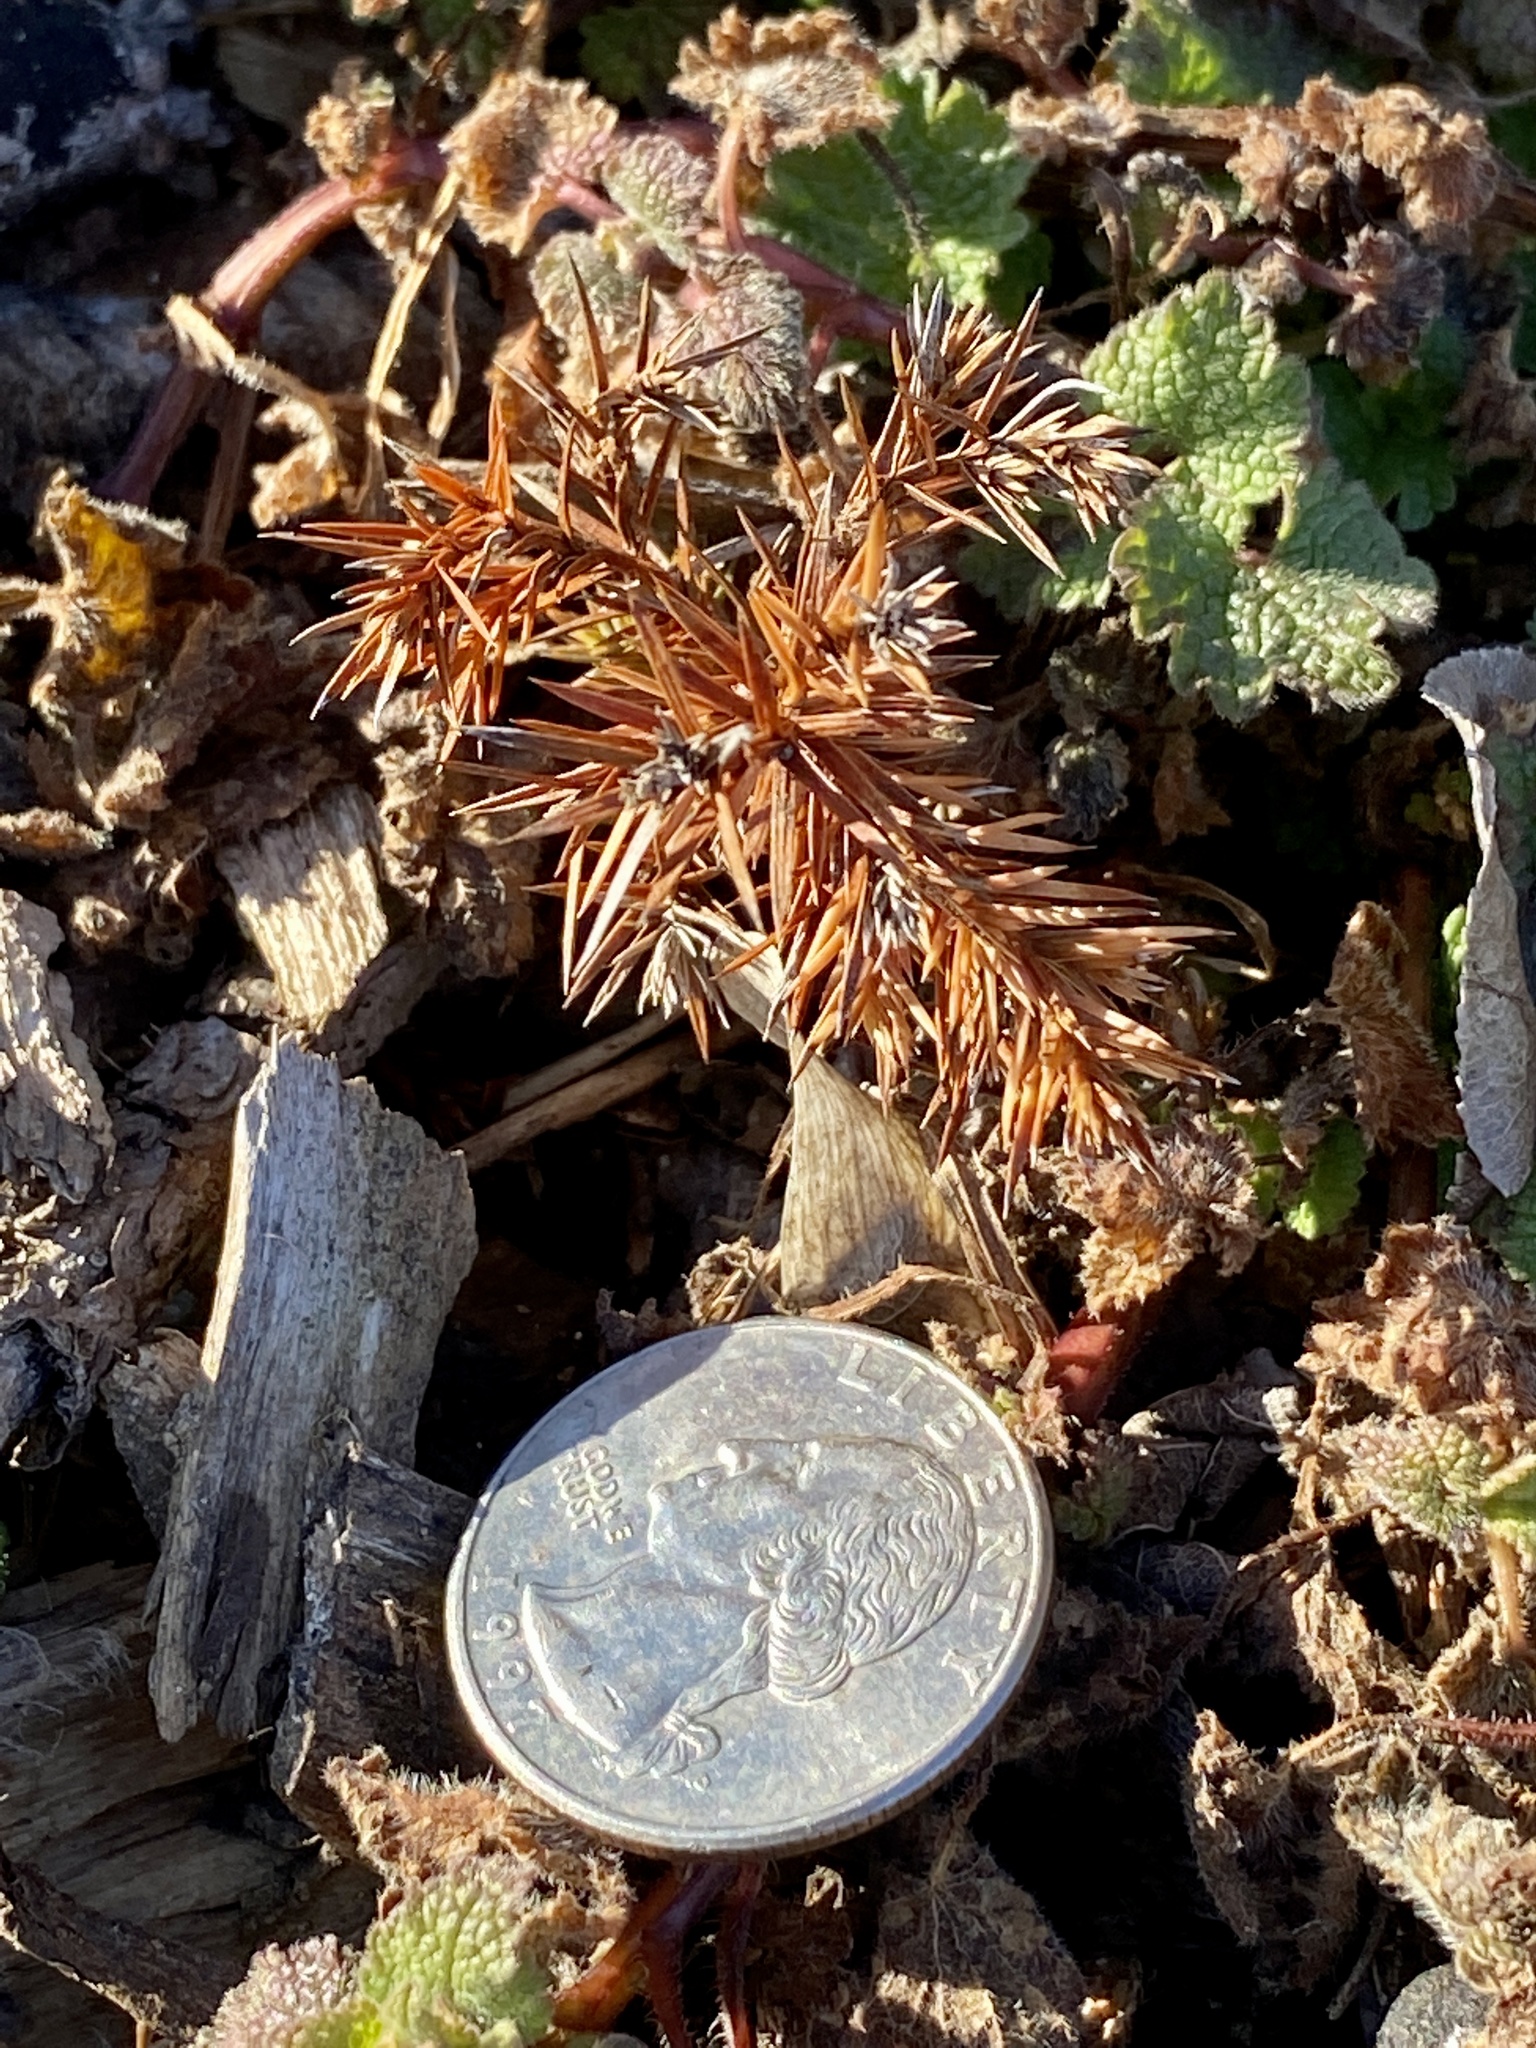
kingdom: Plantae
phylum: Tracheophyta
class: Pinopsida
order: Pinales
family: Cupressaceae
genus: Juniperus
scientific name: Juniperus virginiana
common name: Red juniper
